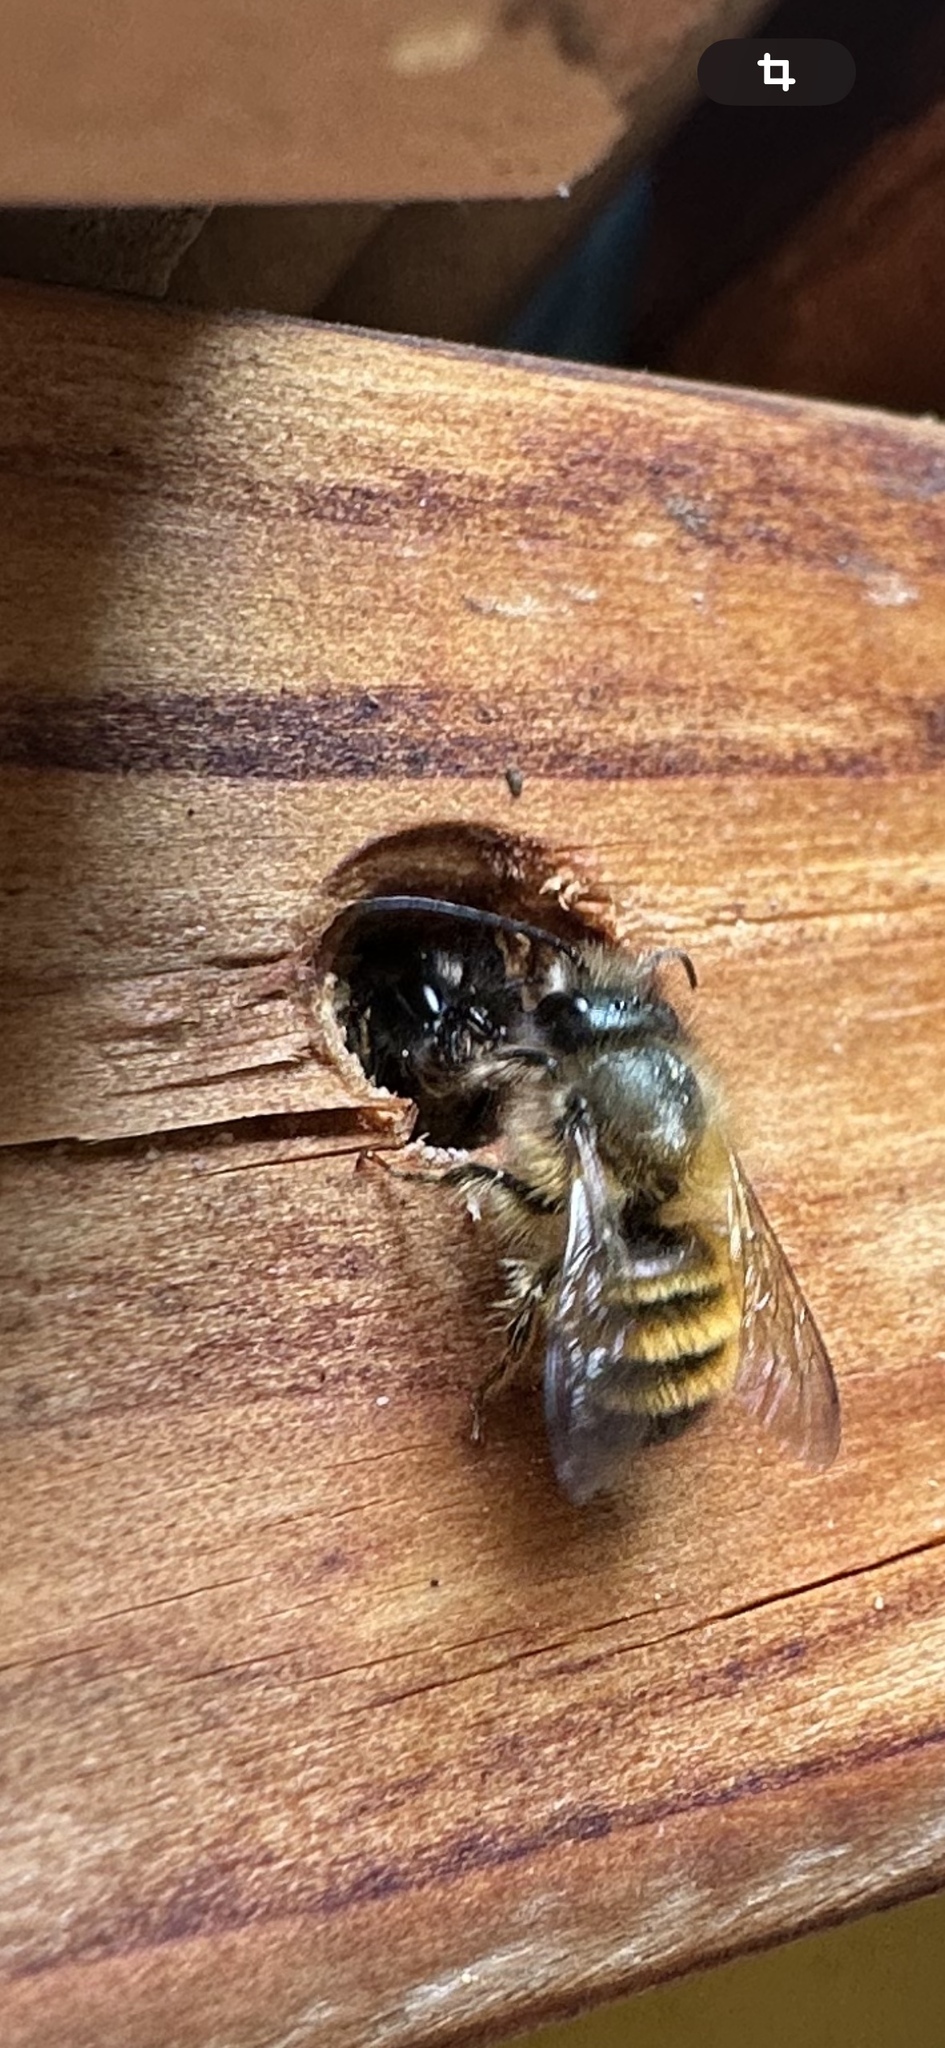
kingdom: Animalia
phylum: Arthropoda
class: Insecta
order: Hymenoptera
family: Megachilidae
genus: Osmia
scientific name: Osmia bicornis
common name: Red mason bee
